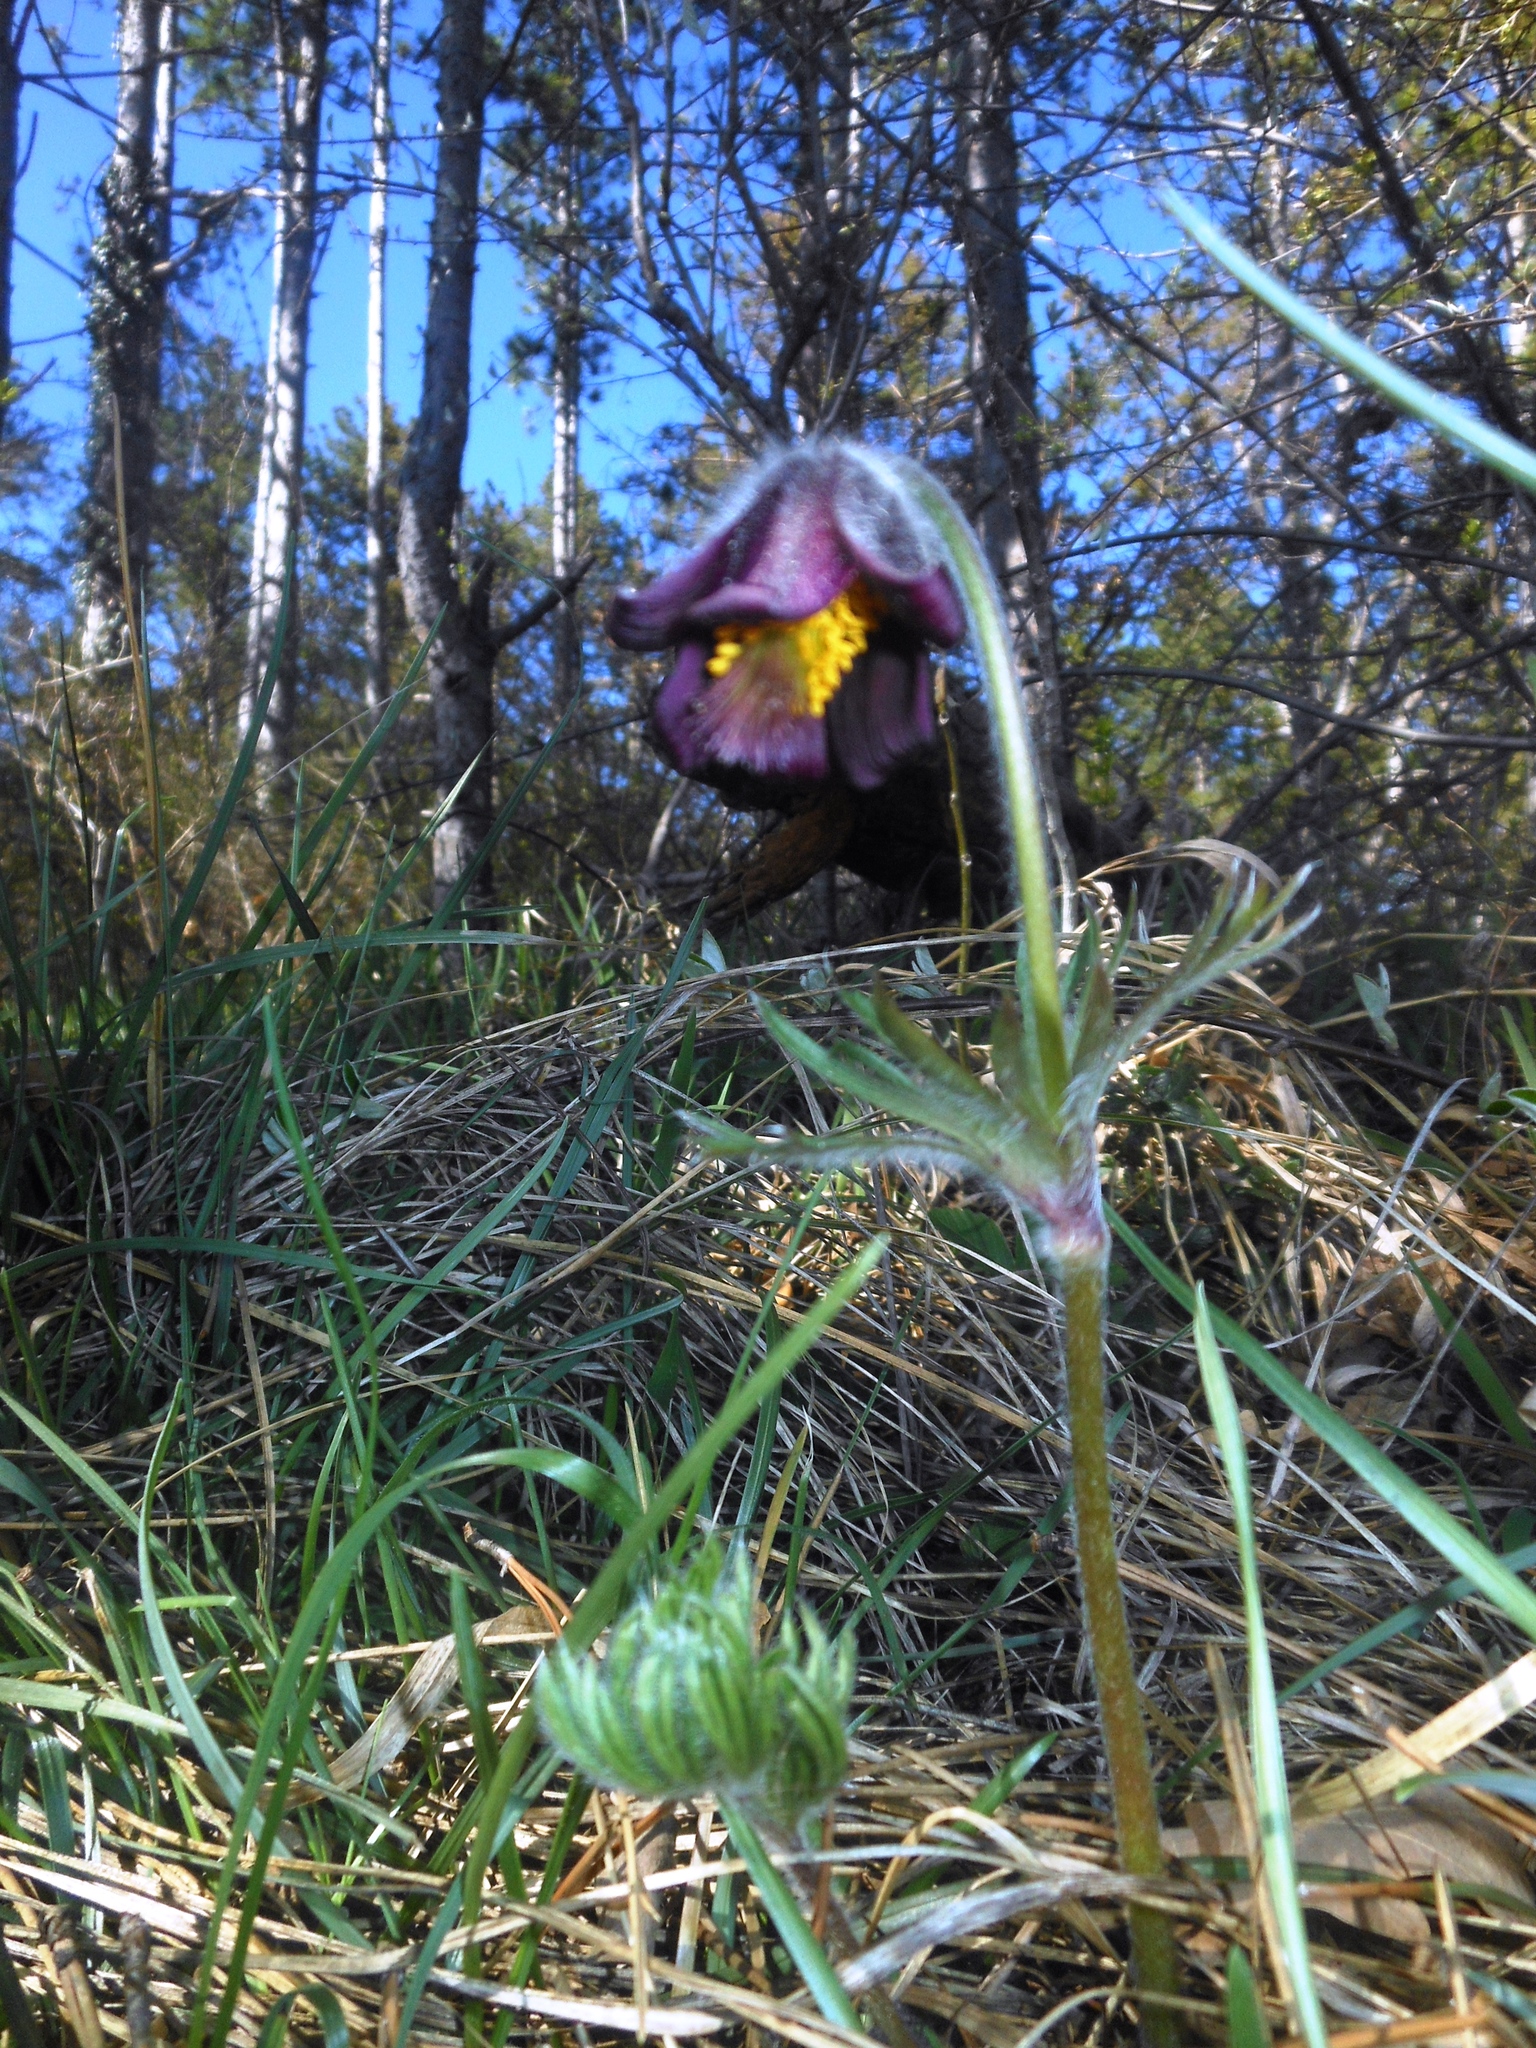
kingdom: Plantae
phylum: Tracheophyta
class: Magnoliopsida
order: Ranunculales
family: Ranunculaceae
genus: Pulsatilla
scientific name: Pulsatilla pratensis
